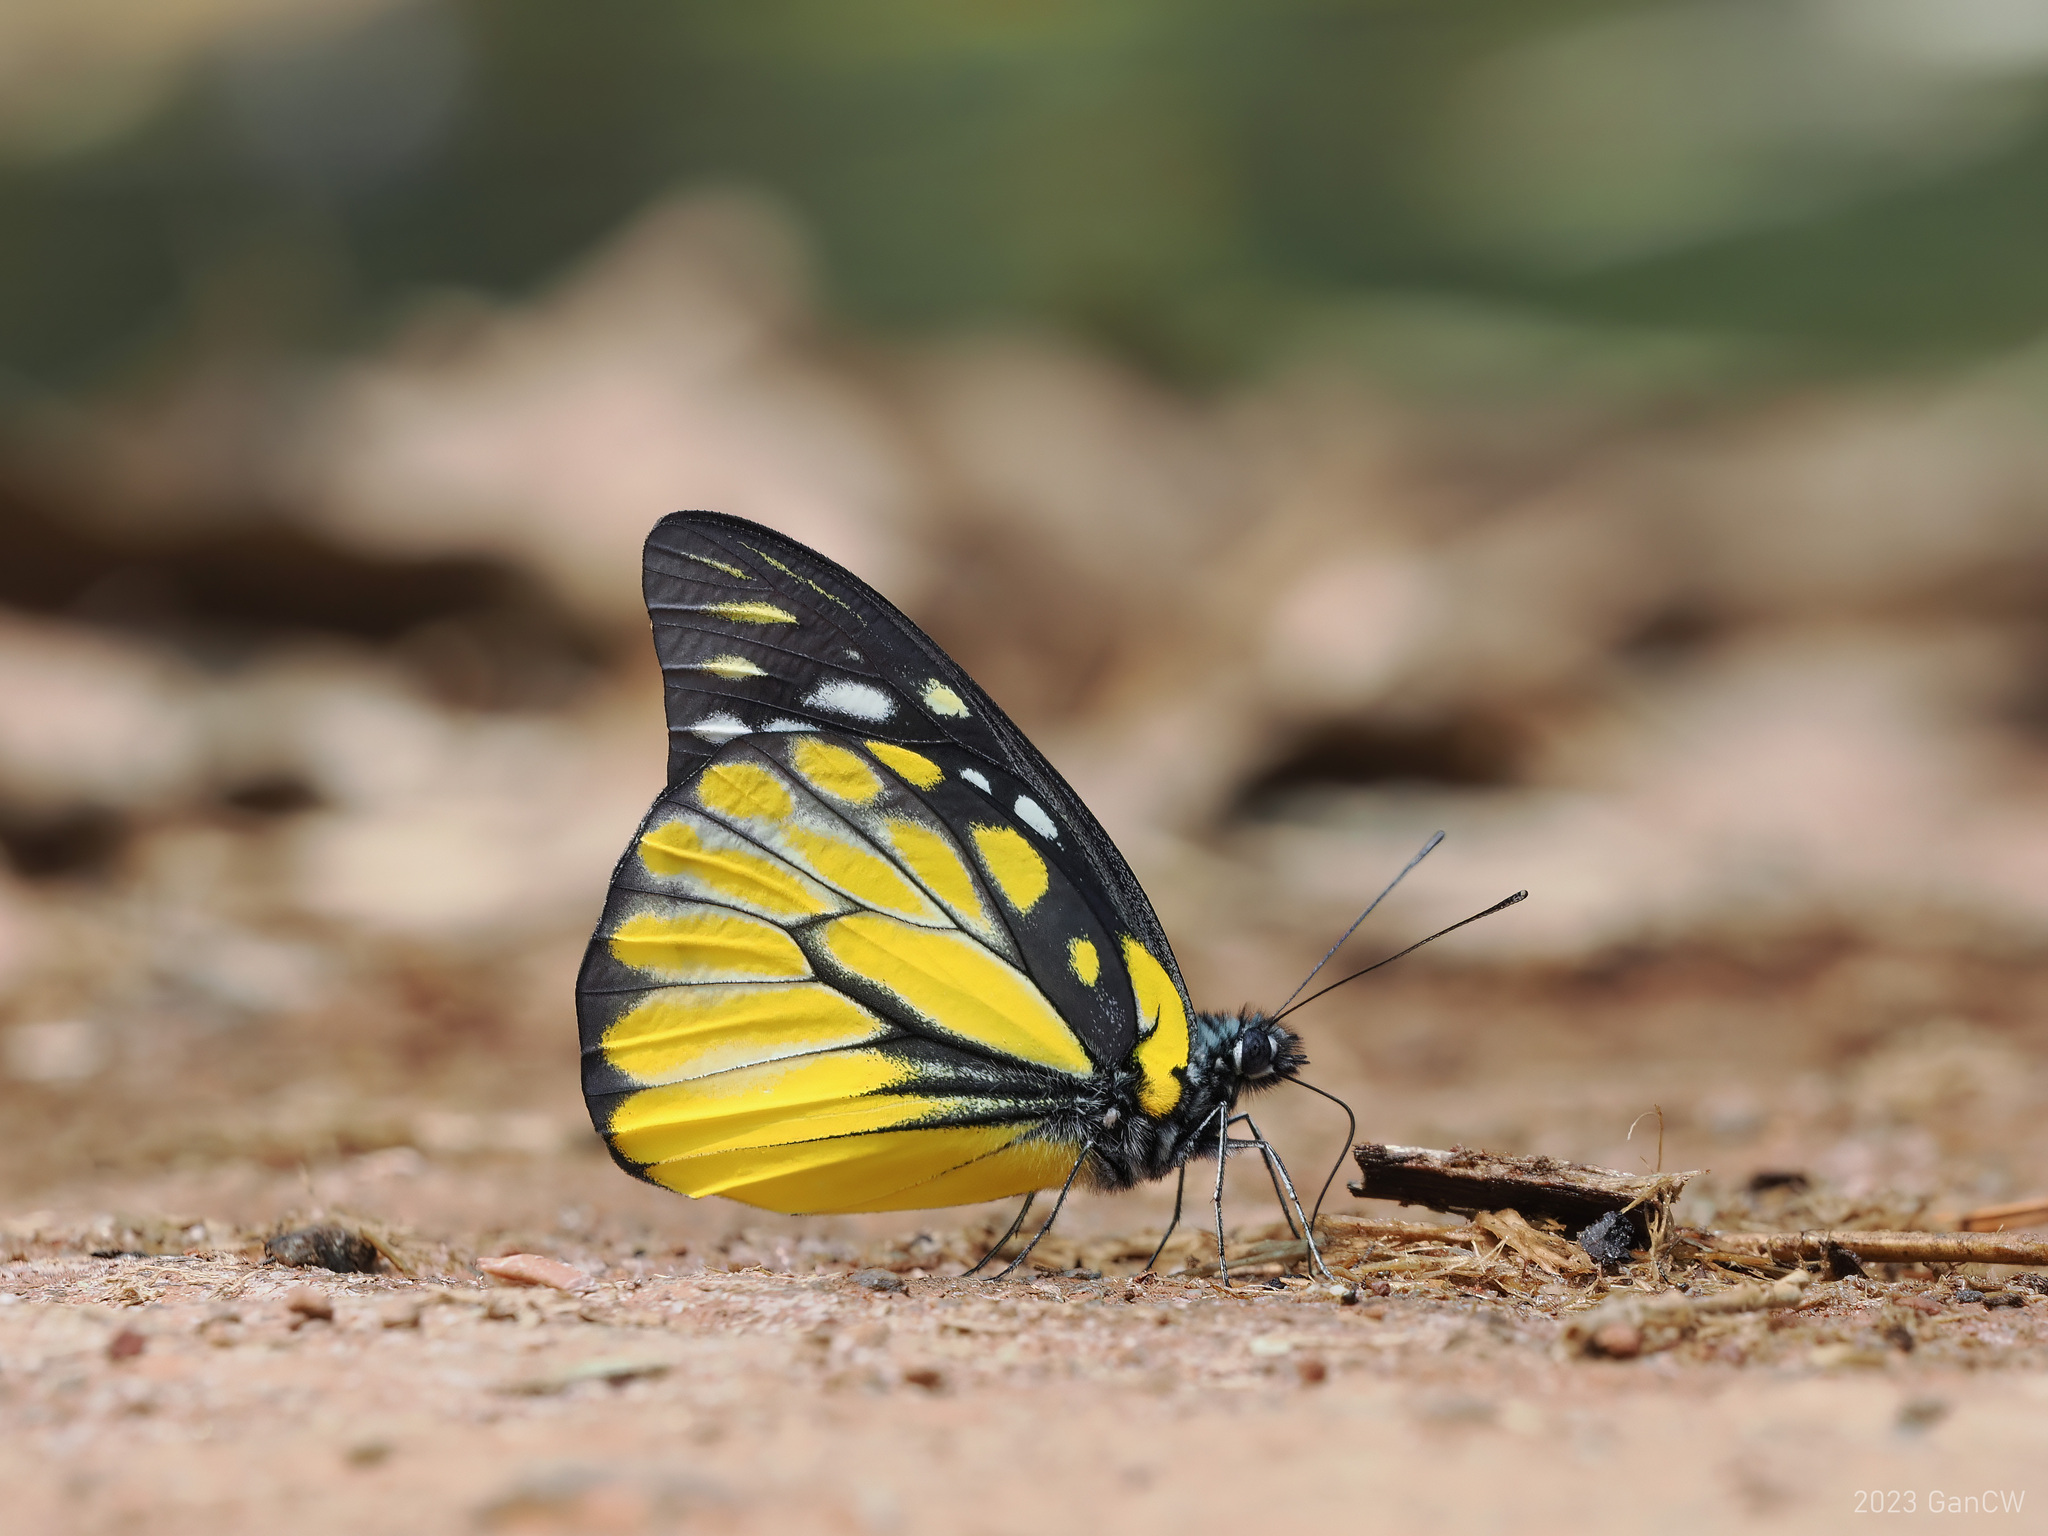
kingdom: Animalia
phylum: Arthropoda
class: Insecta
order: Lepidoptera
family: Pieridae
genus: Prioneris
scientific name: Prioneris thestylis
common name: Spotted sawtooth
